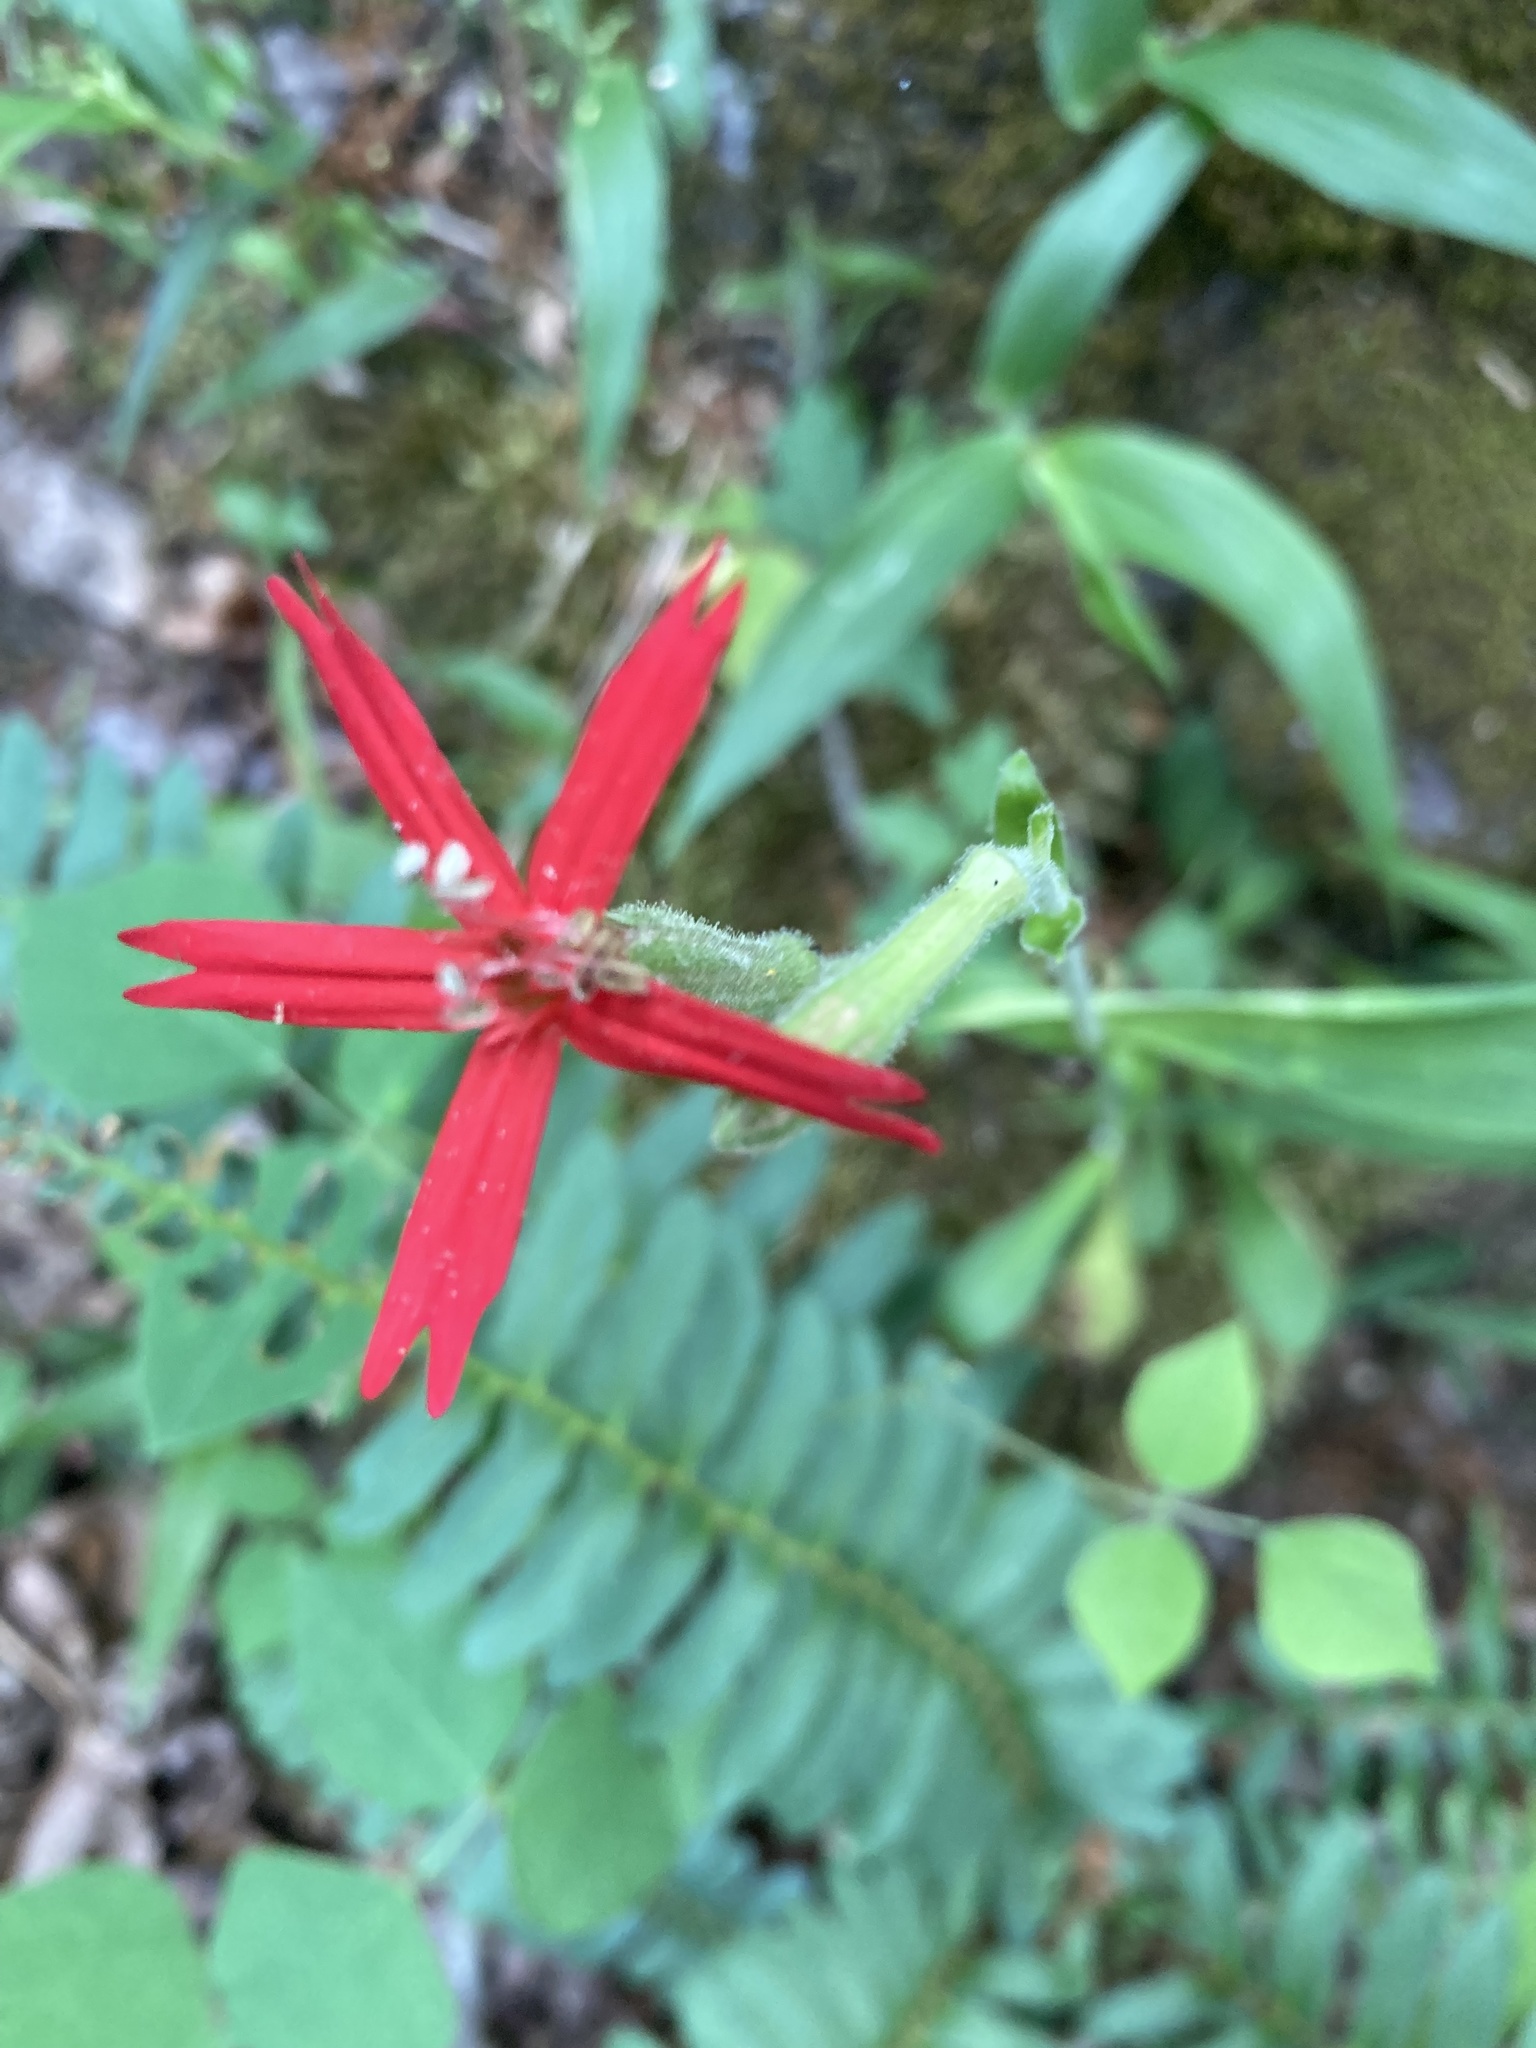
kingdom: Plantae
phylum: Tracheophyta
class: Magnoliopsida
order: Caryophyllales
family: Caryophyllaceae
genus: Silene
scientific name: Silene virginica
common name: Fire-pink
